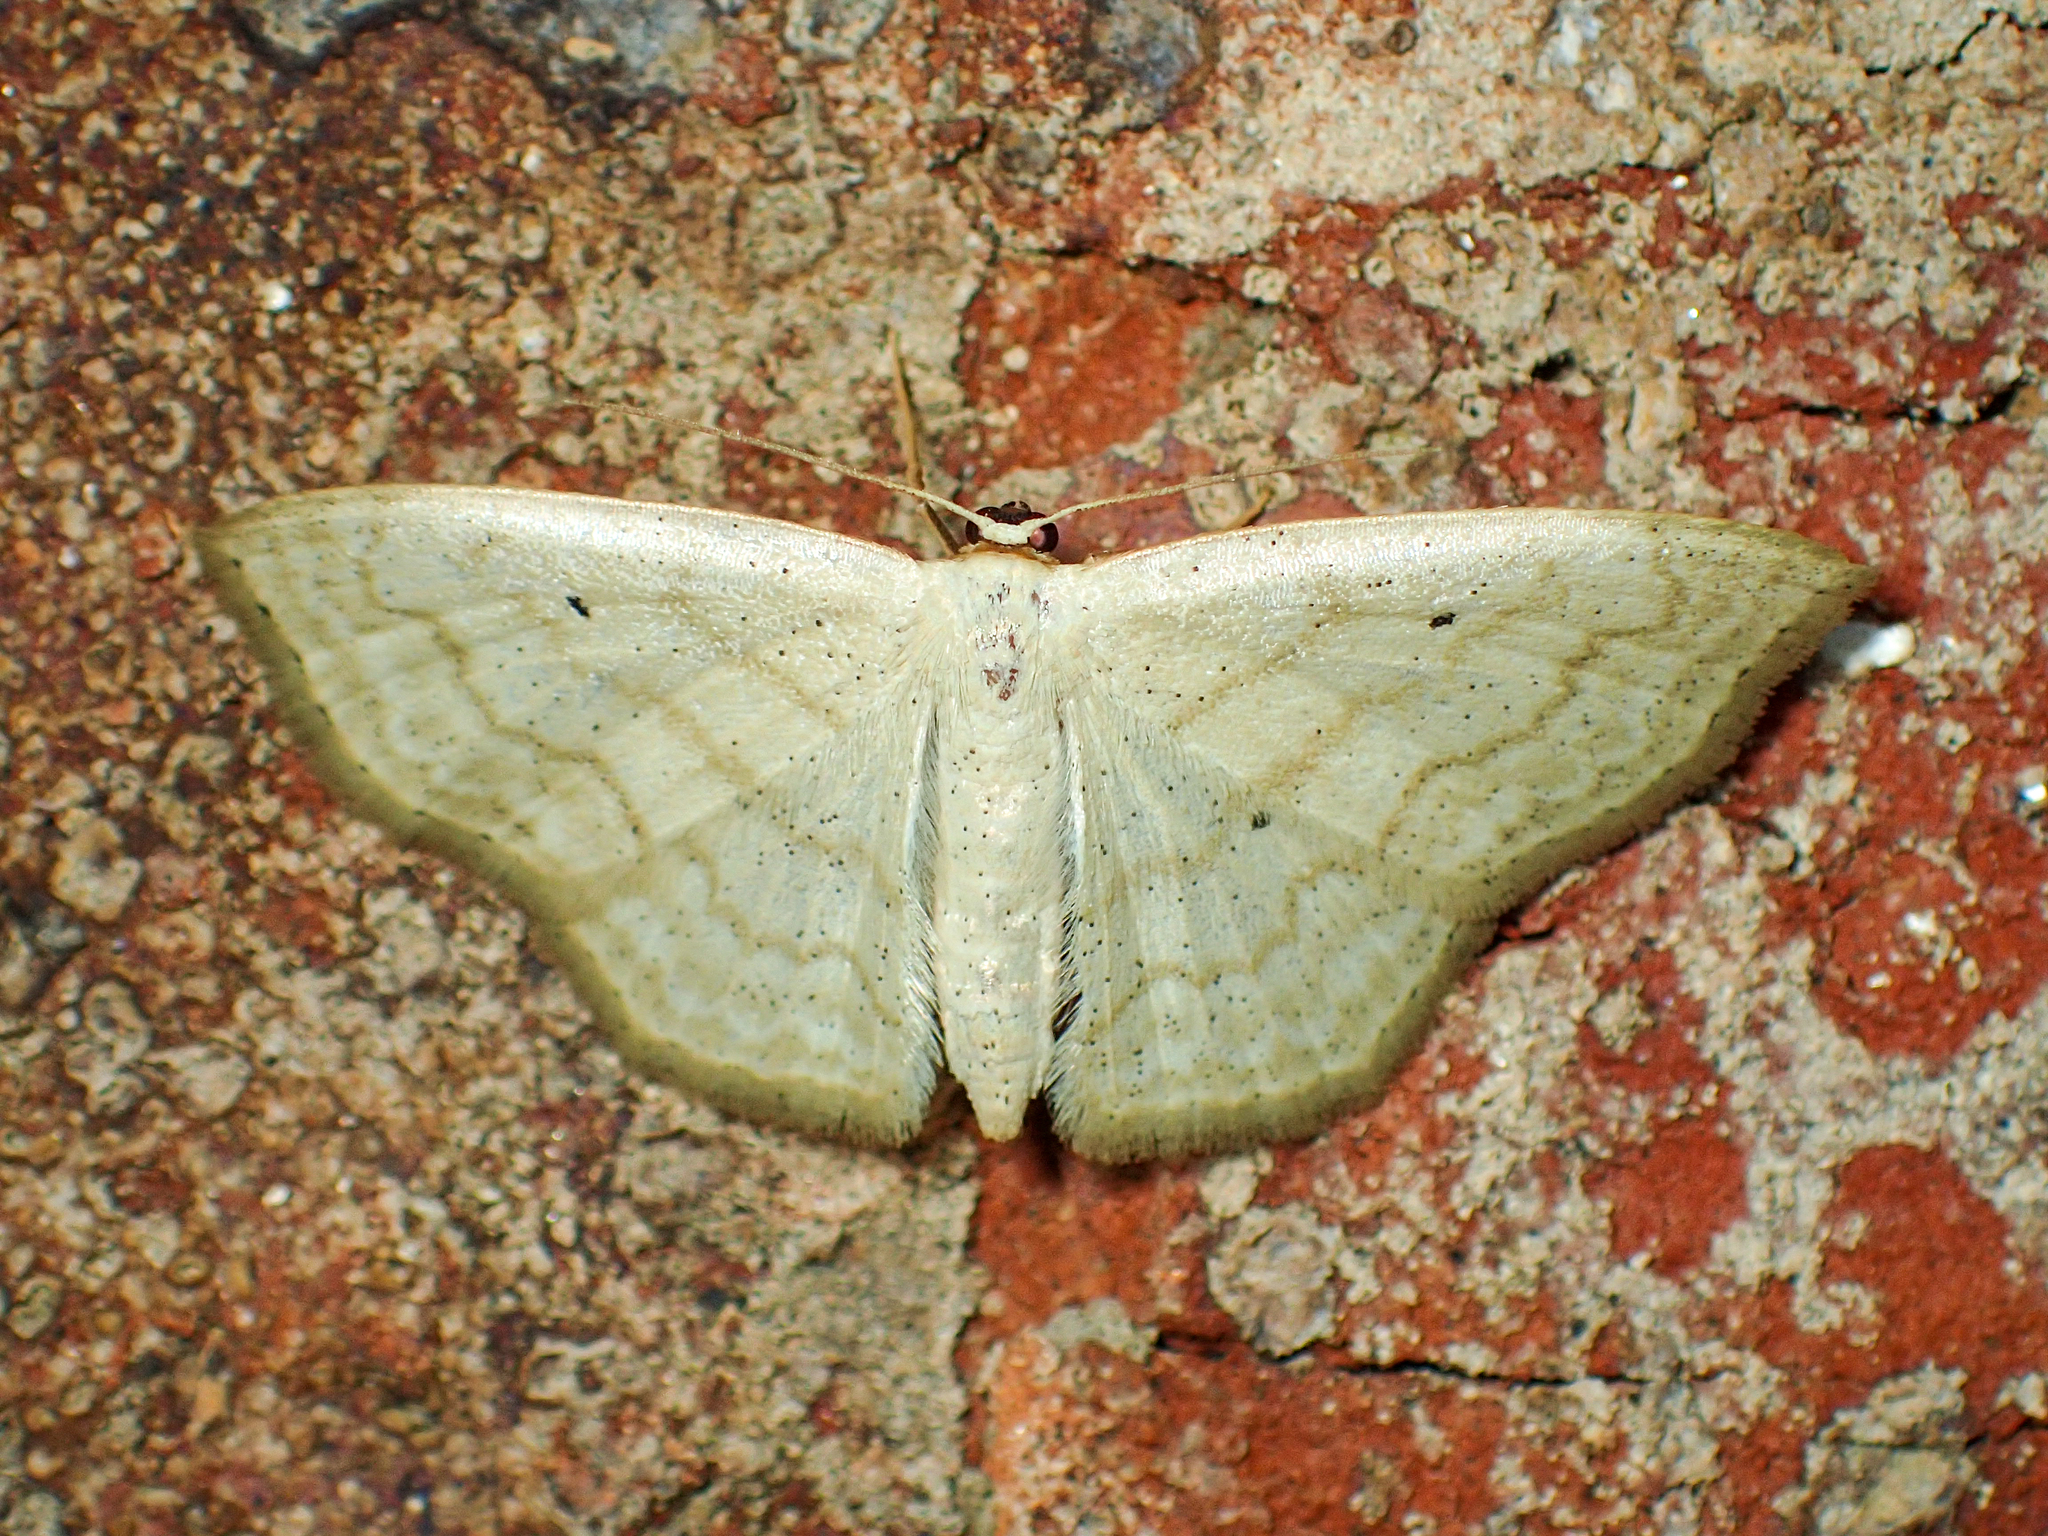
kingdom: Animalia
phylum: Arthropoda
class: Insecta
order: Lepidoptera
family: Geometridae
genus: Scopula
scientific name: Scopula limboundata
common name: Large lace border
